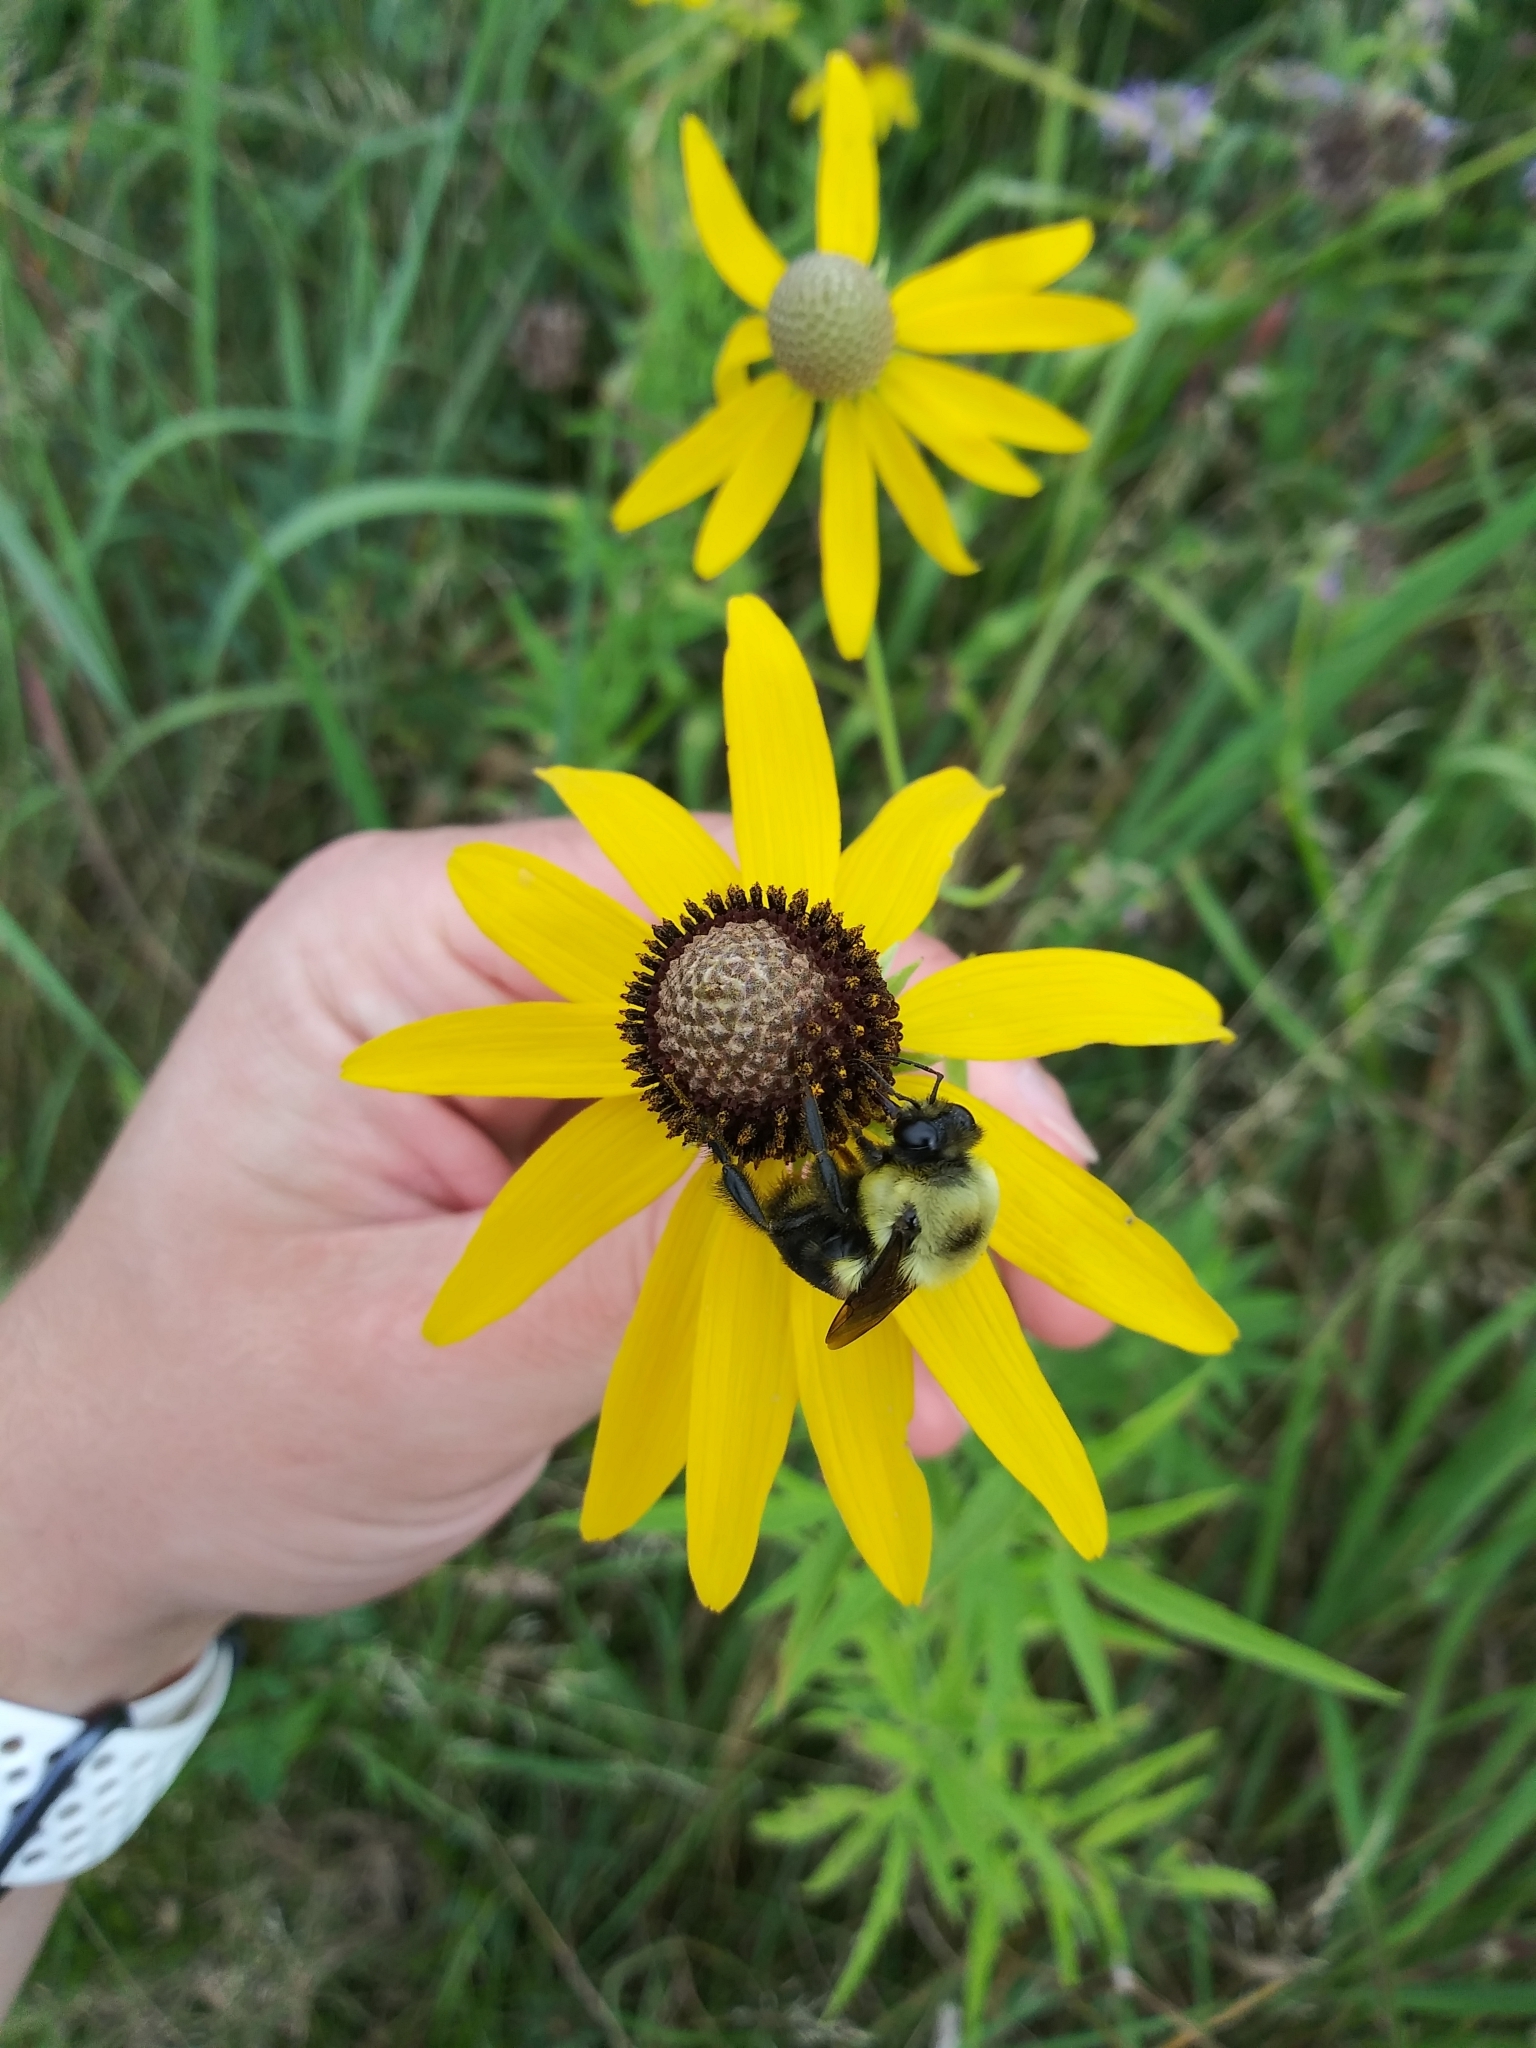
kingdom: Animalia
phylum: Arthropoda
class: Insecta
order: Hymenoptera
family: Apidae
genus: Bombus
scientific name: Bombus griseocollis
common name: Brown-belted bumble bee
